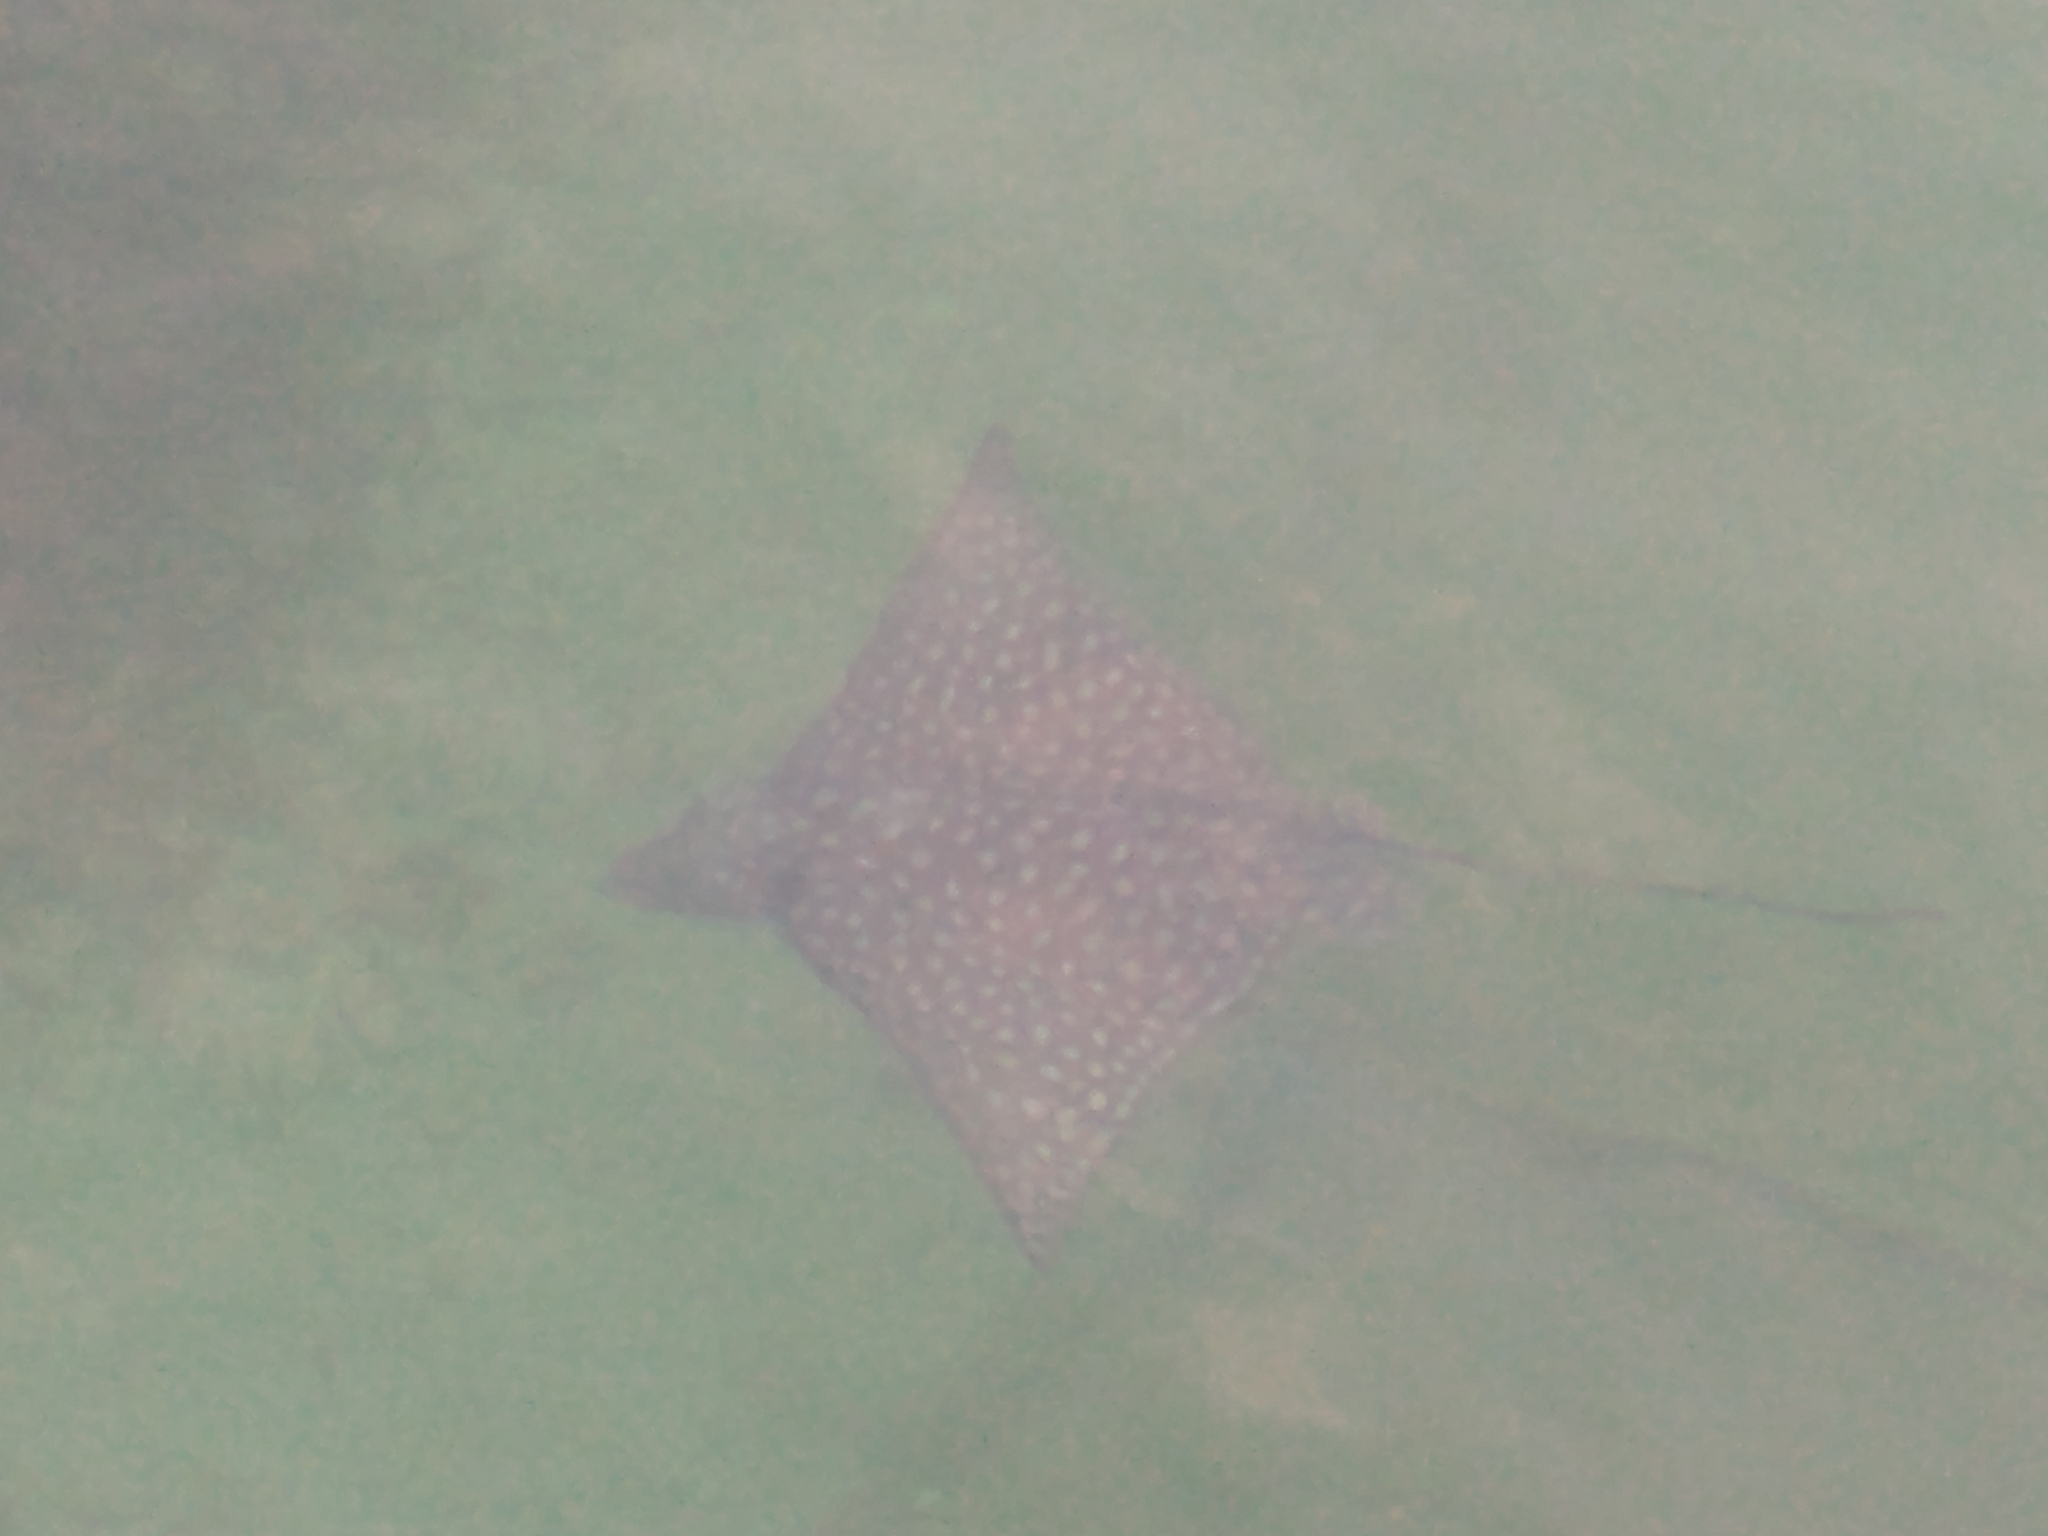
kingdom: Animalia
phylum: Chordata
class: Elasmobranchii
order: Myliobatiformes
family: Myliobatidae
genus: Aetobatus
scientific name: Aetobatus narinari
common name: Spotted eagle ray
